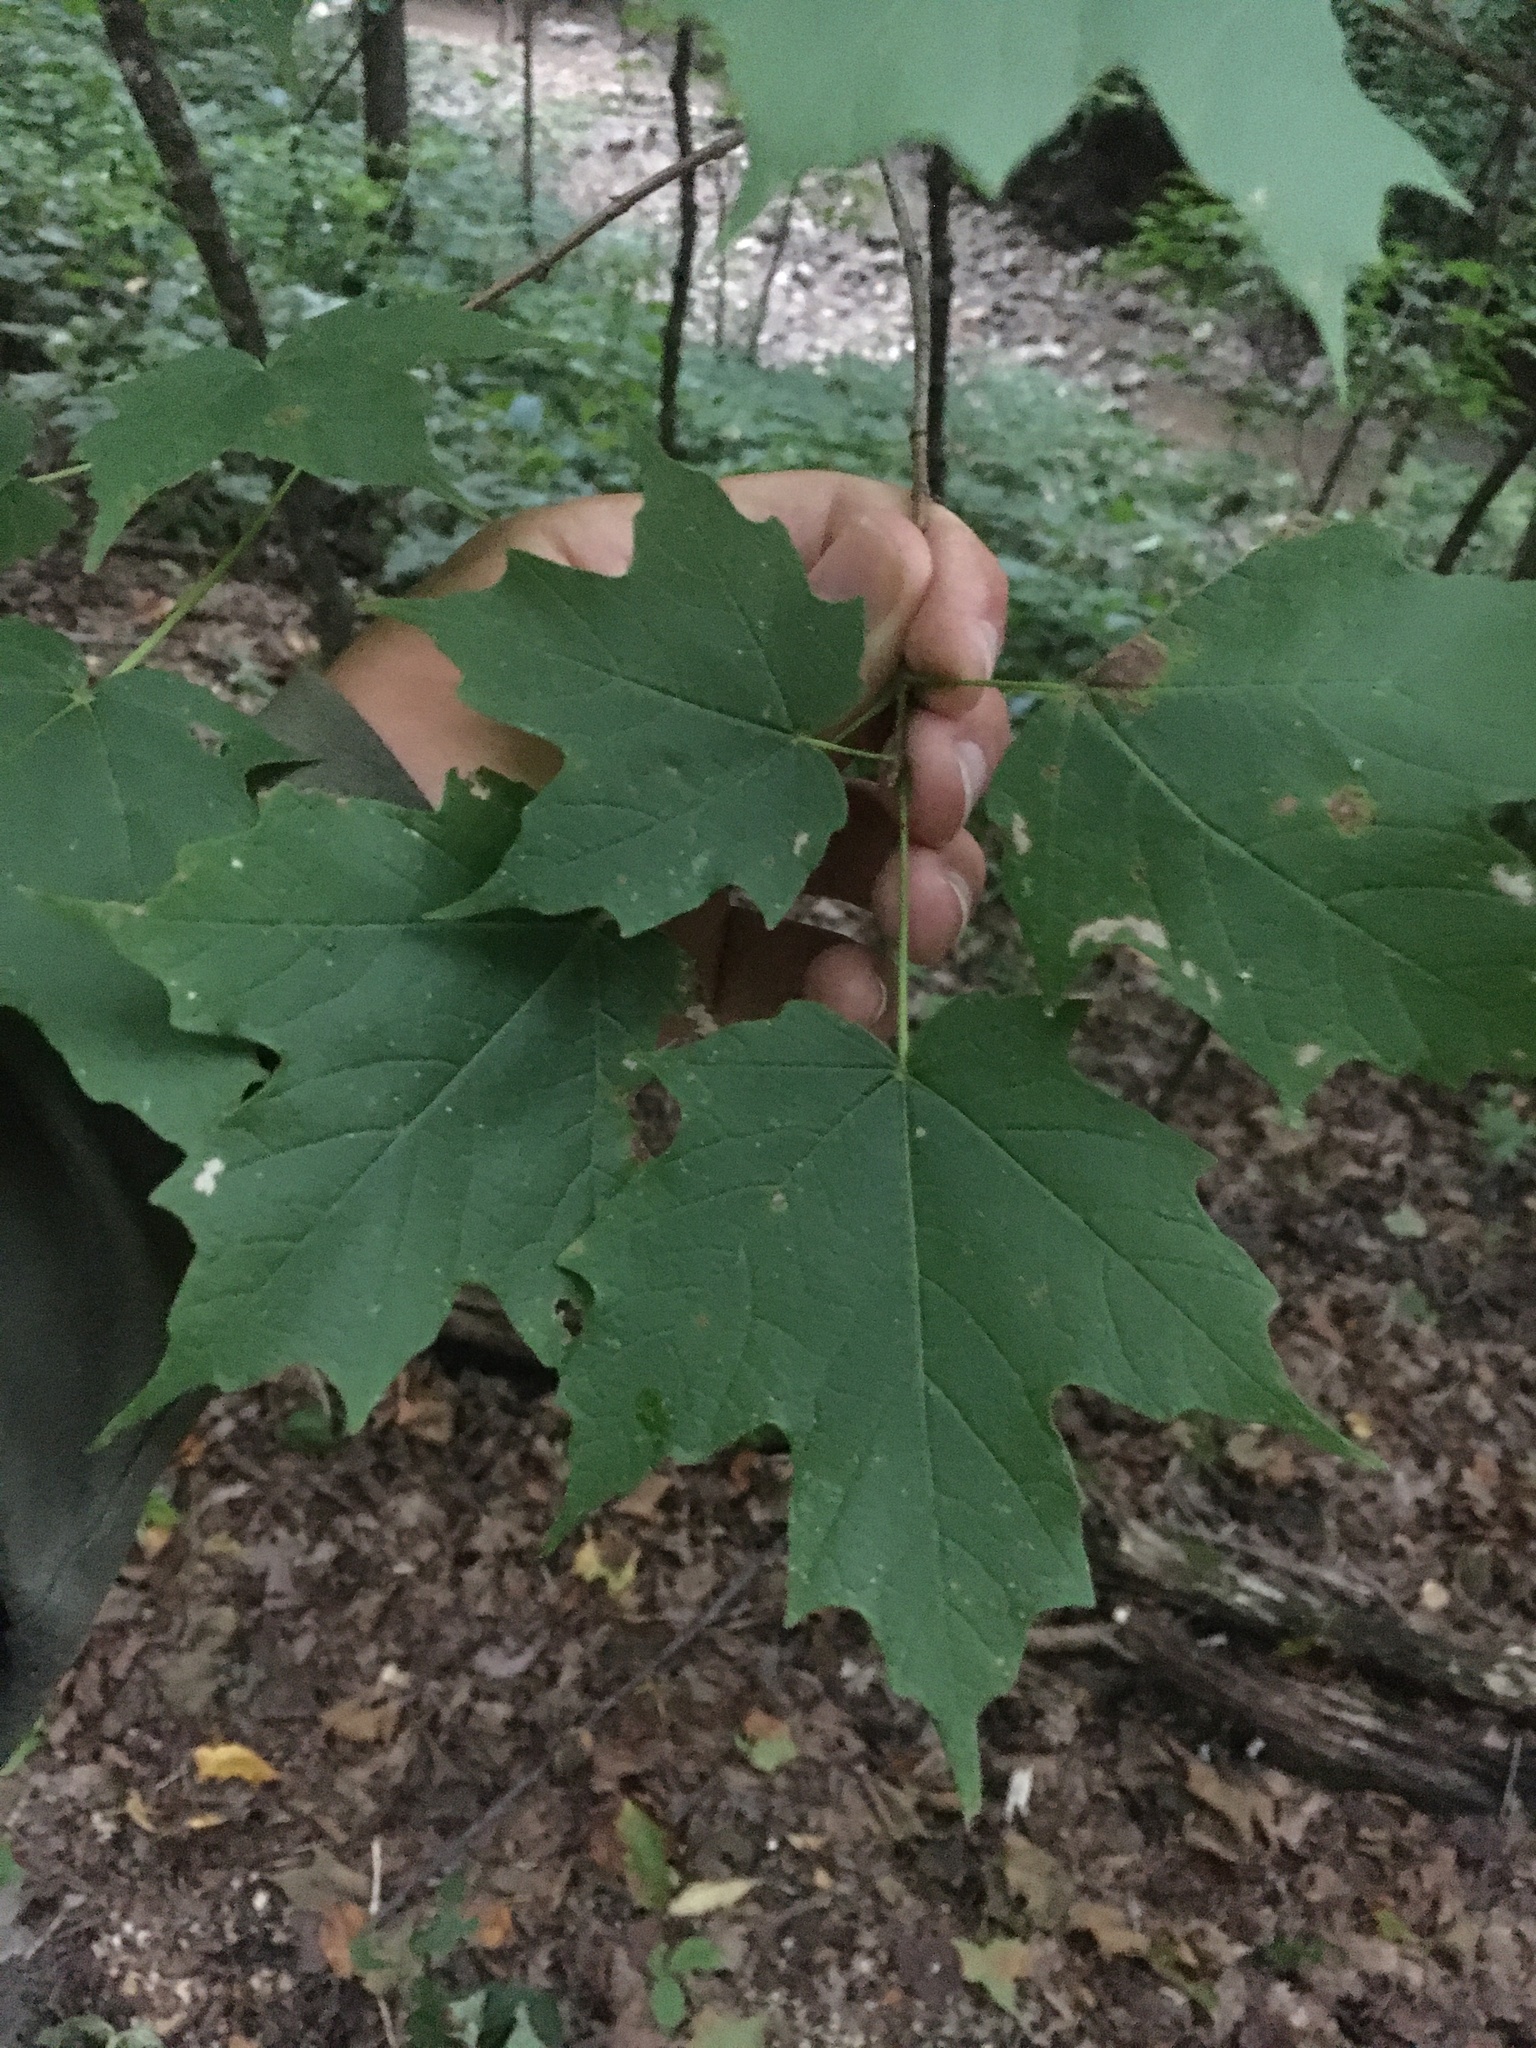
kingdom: Plantae
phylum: Tracheophyta
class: Magnoliopsida
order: Sapindales
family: Sapindaceae
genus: Acer
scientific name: Acer nigrum
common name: Black maple
